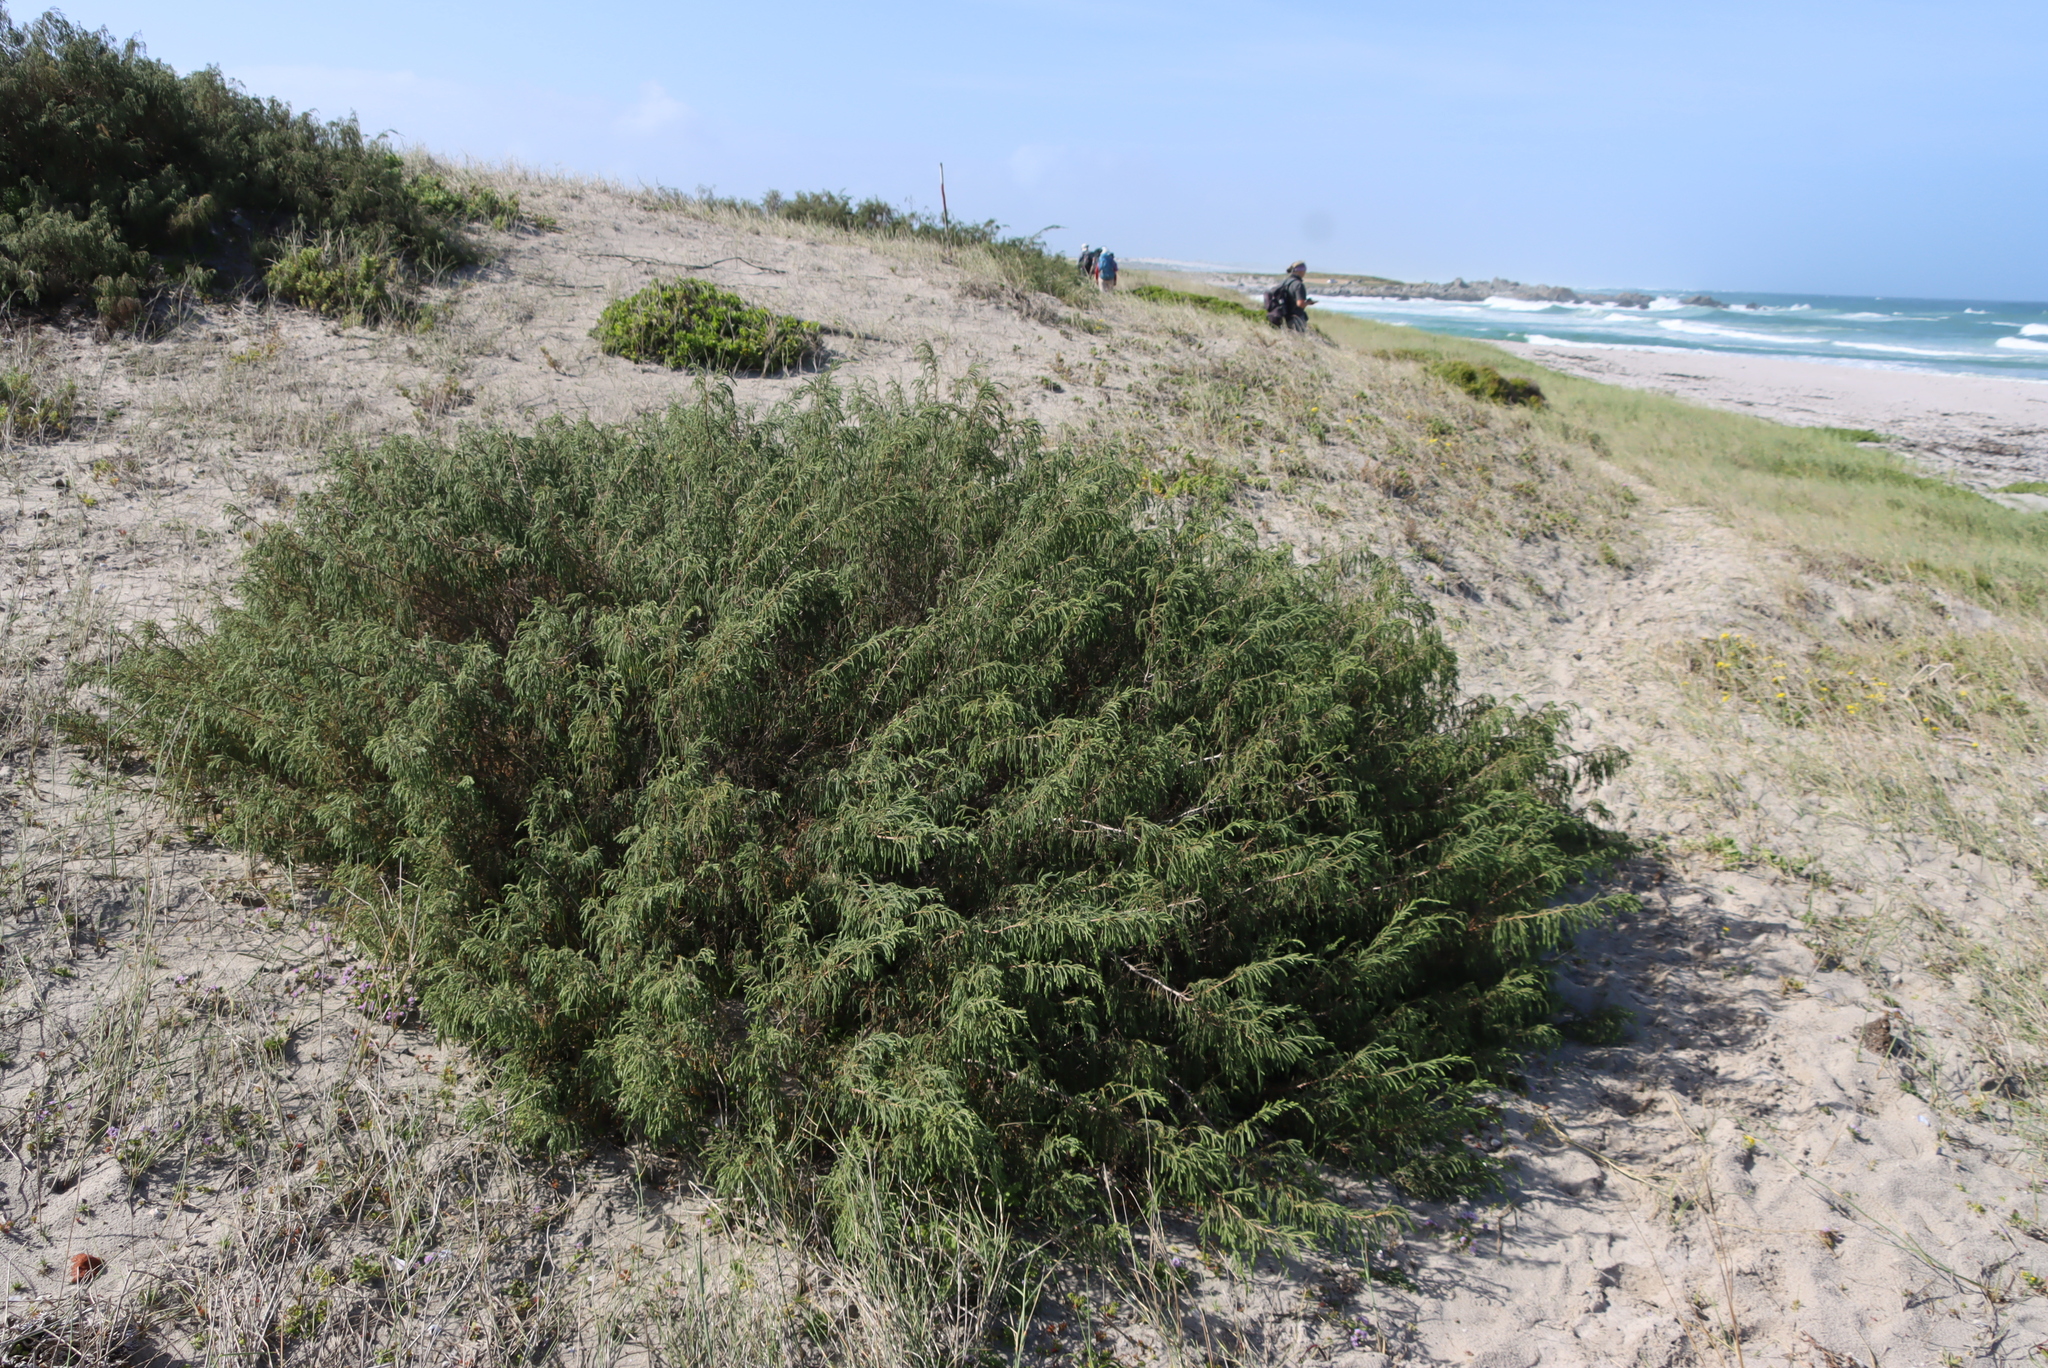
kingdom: Plantae
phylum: Tracheophyta
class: Magnoliopsida
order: Malvales
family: Thymelaeaceae
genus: Passerina
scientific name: Passerina ericoides
